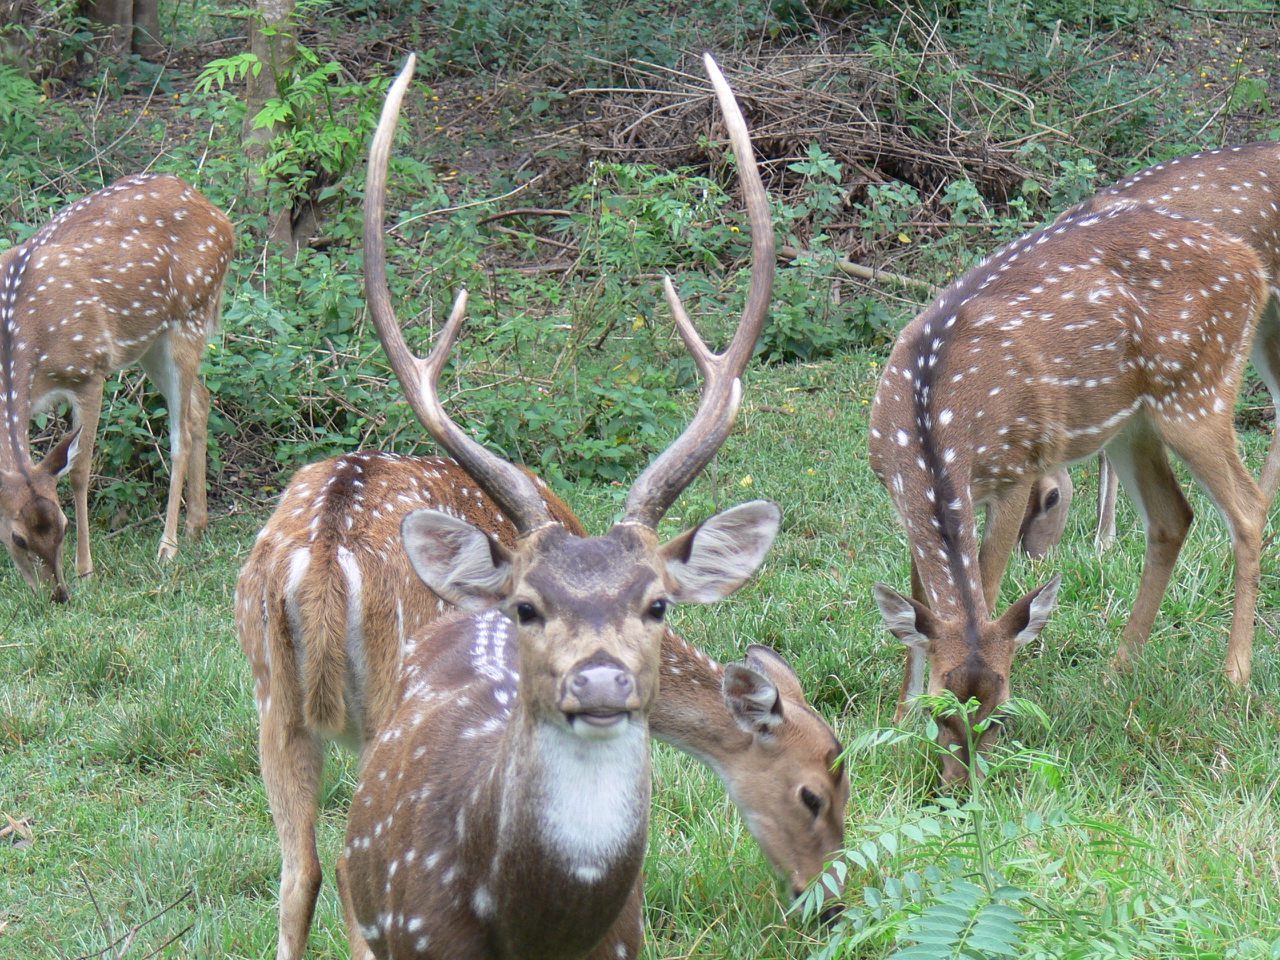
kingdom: Animalia
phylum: Chordata
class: Mammalia
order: Artiodactyla
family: Cervidae
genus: Axis
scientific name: Axis axis
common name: Chital
